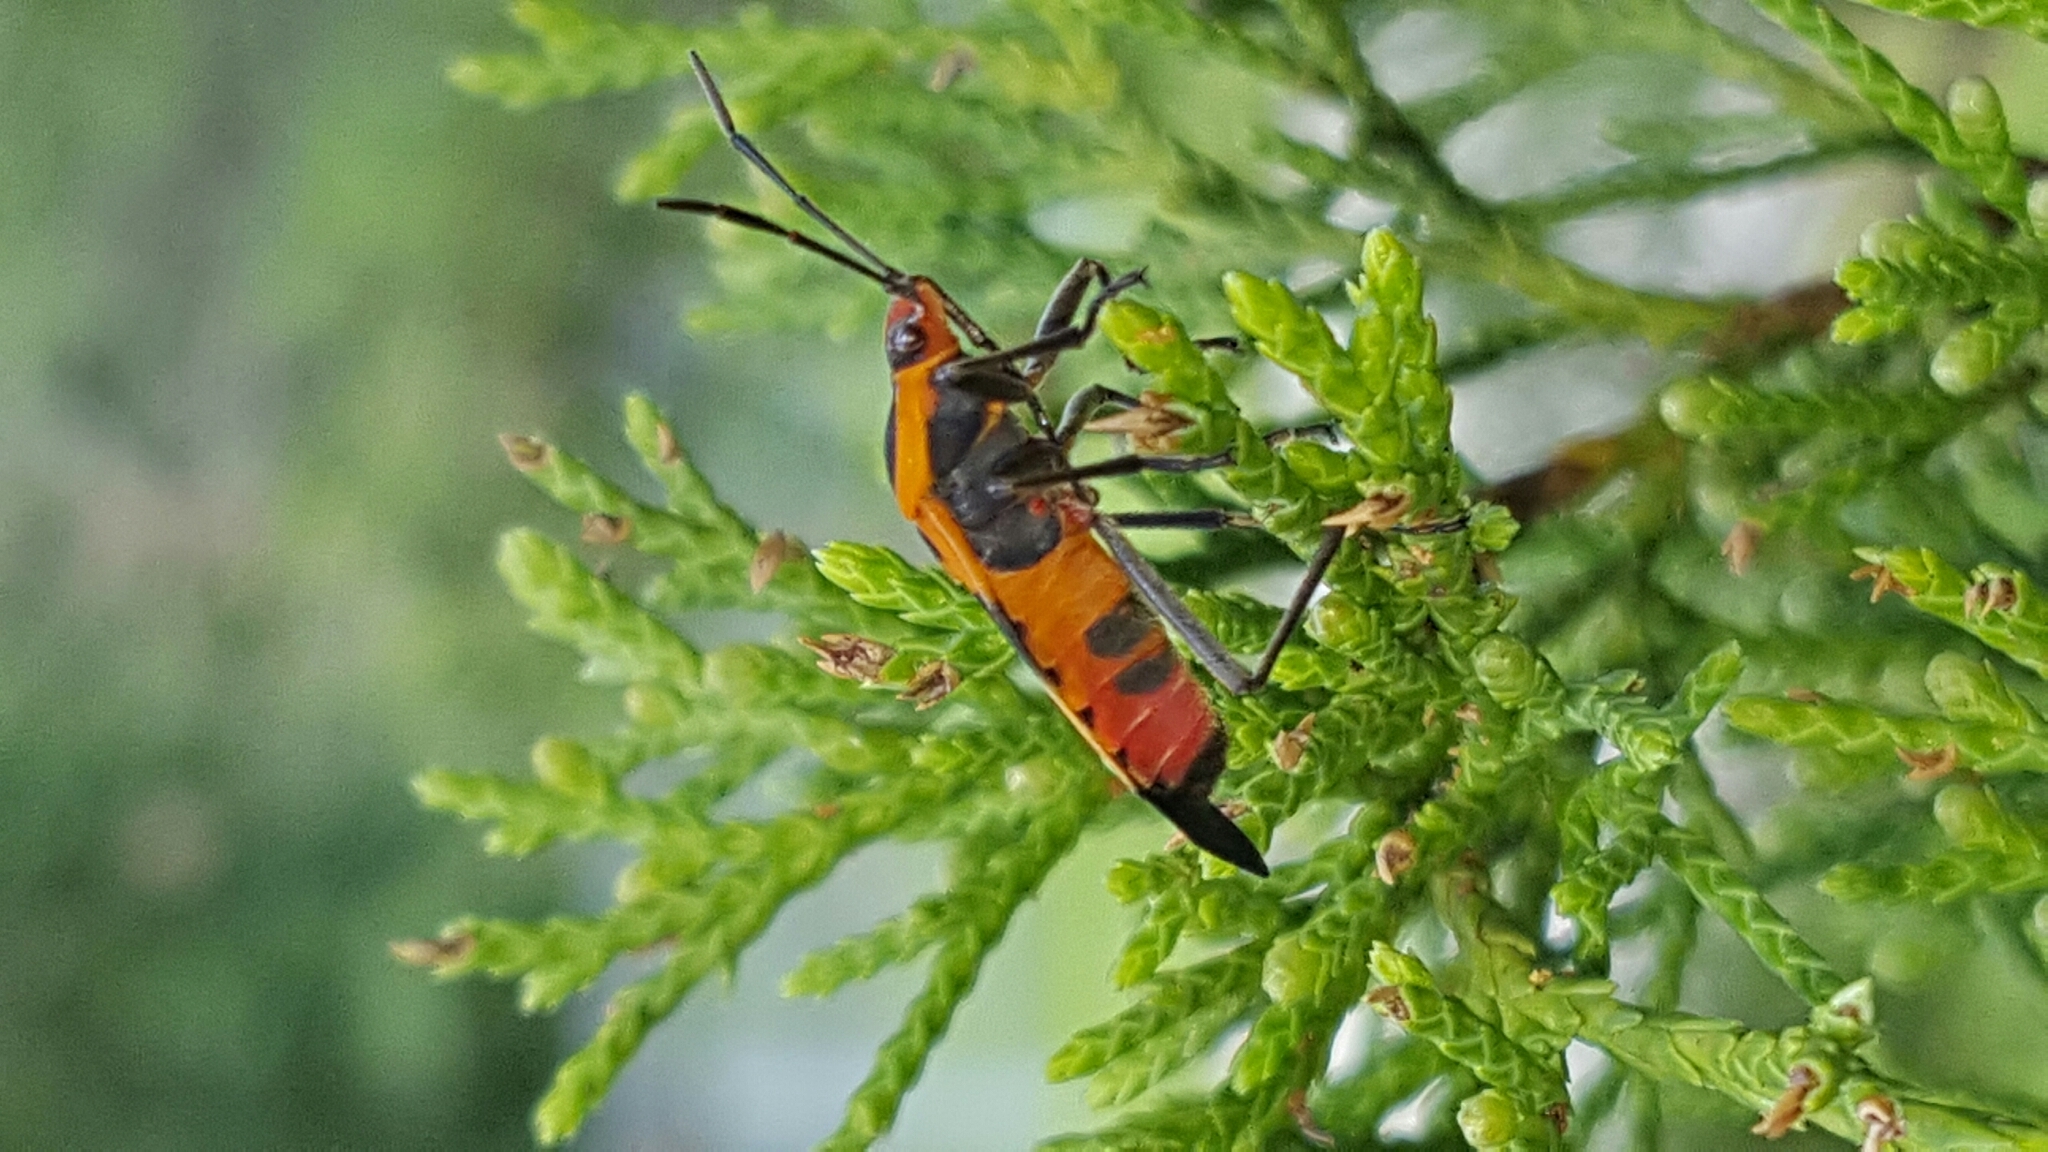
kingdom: Animalia
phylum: Arthropoda
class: Insecta
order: Hemiptera
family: Lygaeidae
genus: Oncopeltus
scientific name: Oncopeltus fasciatus
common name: Large milkweed bug
